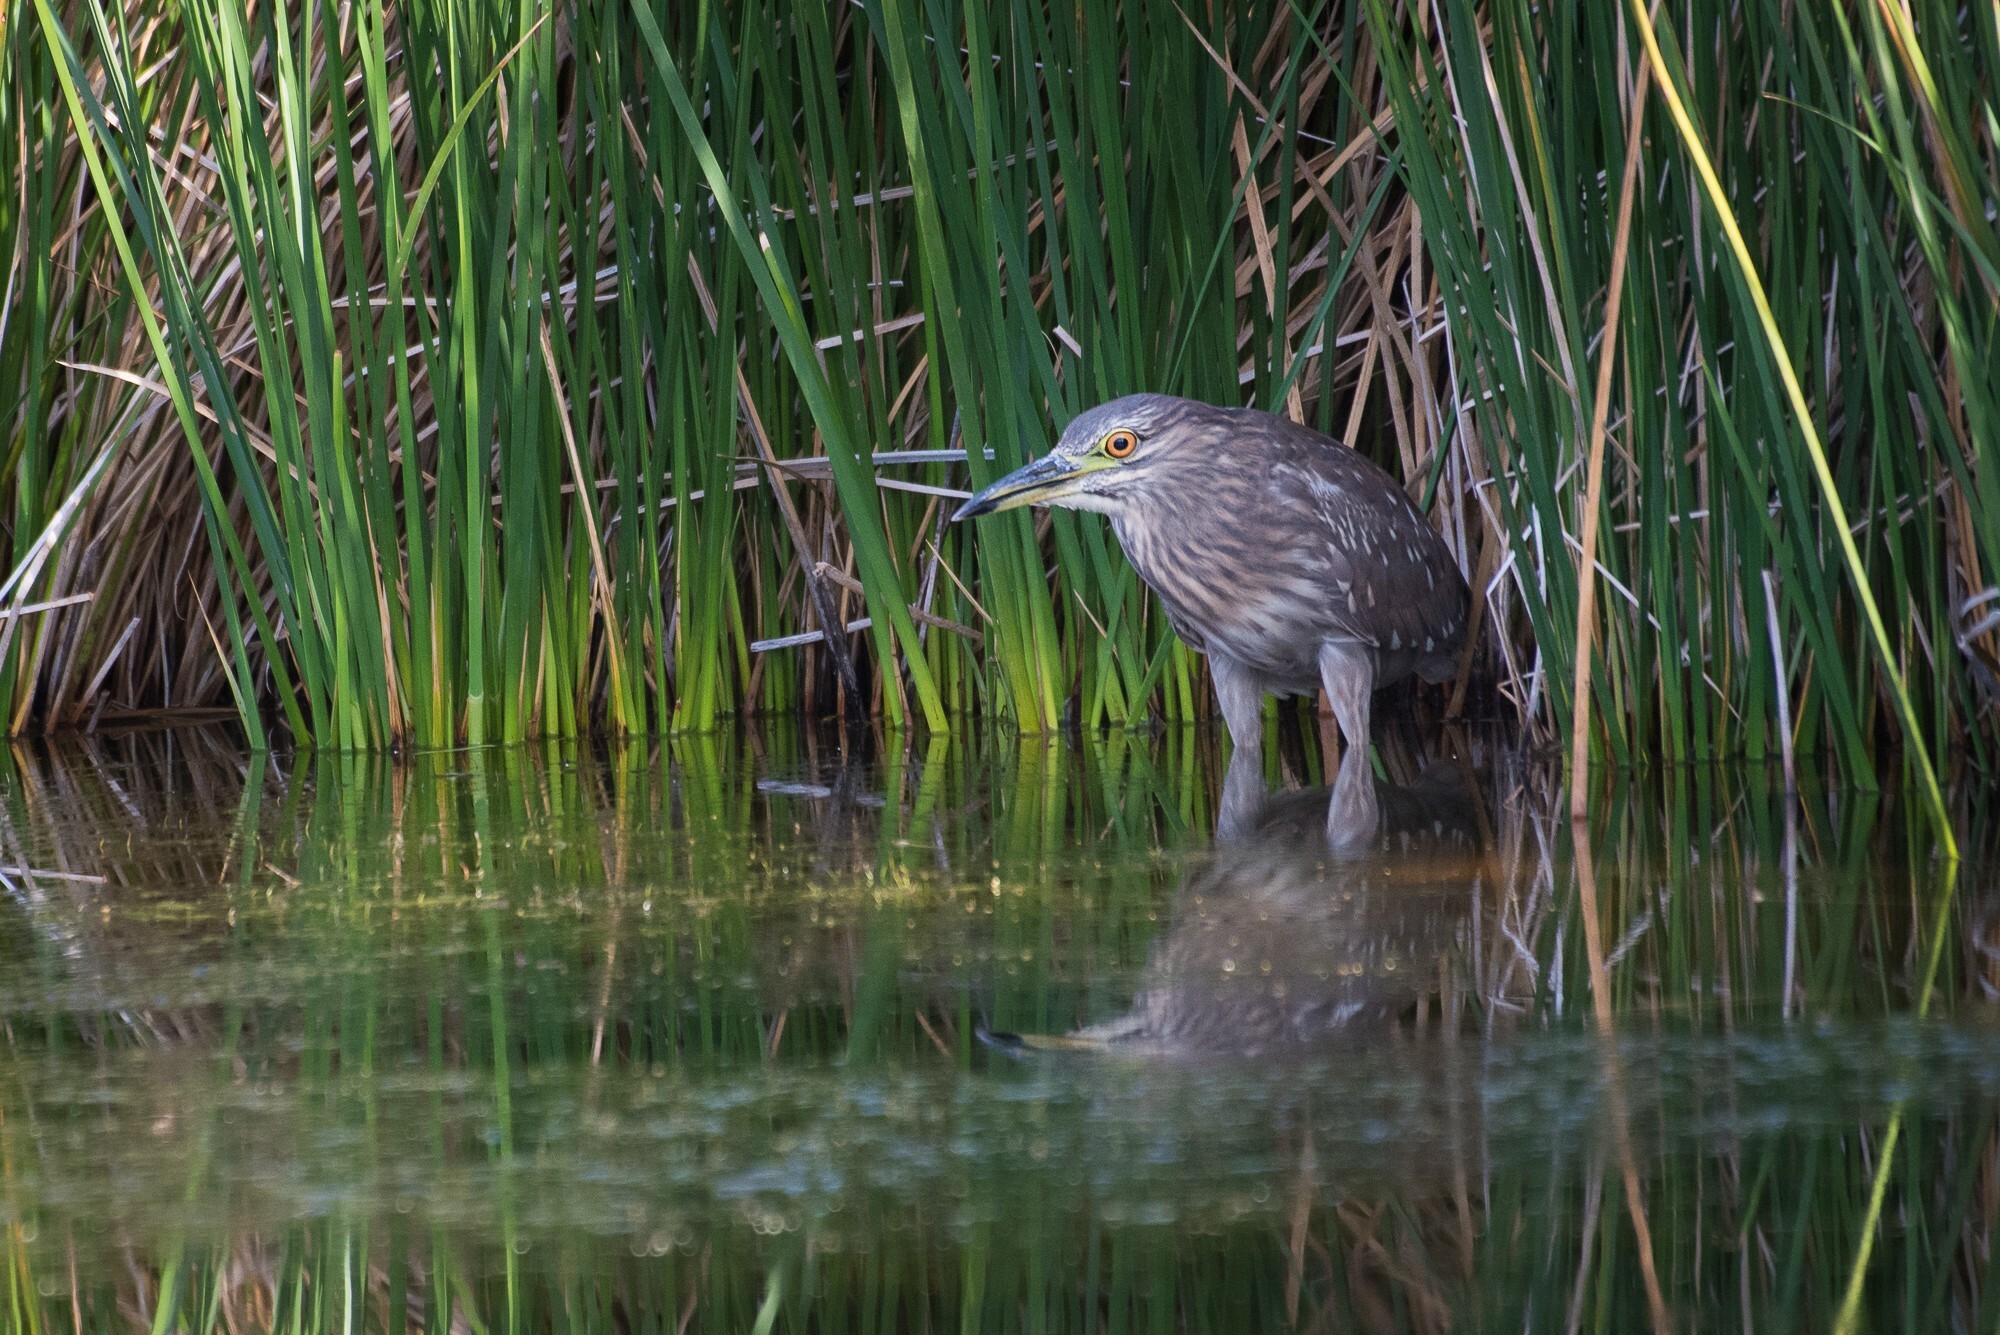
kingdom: Animalia
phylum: Chordata
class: Aves
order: Pelecaniformes
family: Ardeidae
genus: Nycticorax
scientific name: Nycticorax nycticorax
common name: Black-crowned night heron
